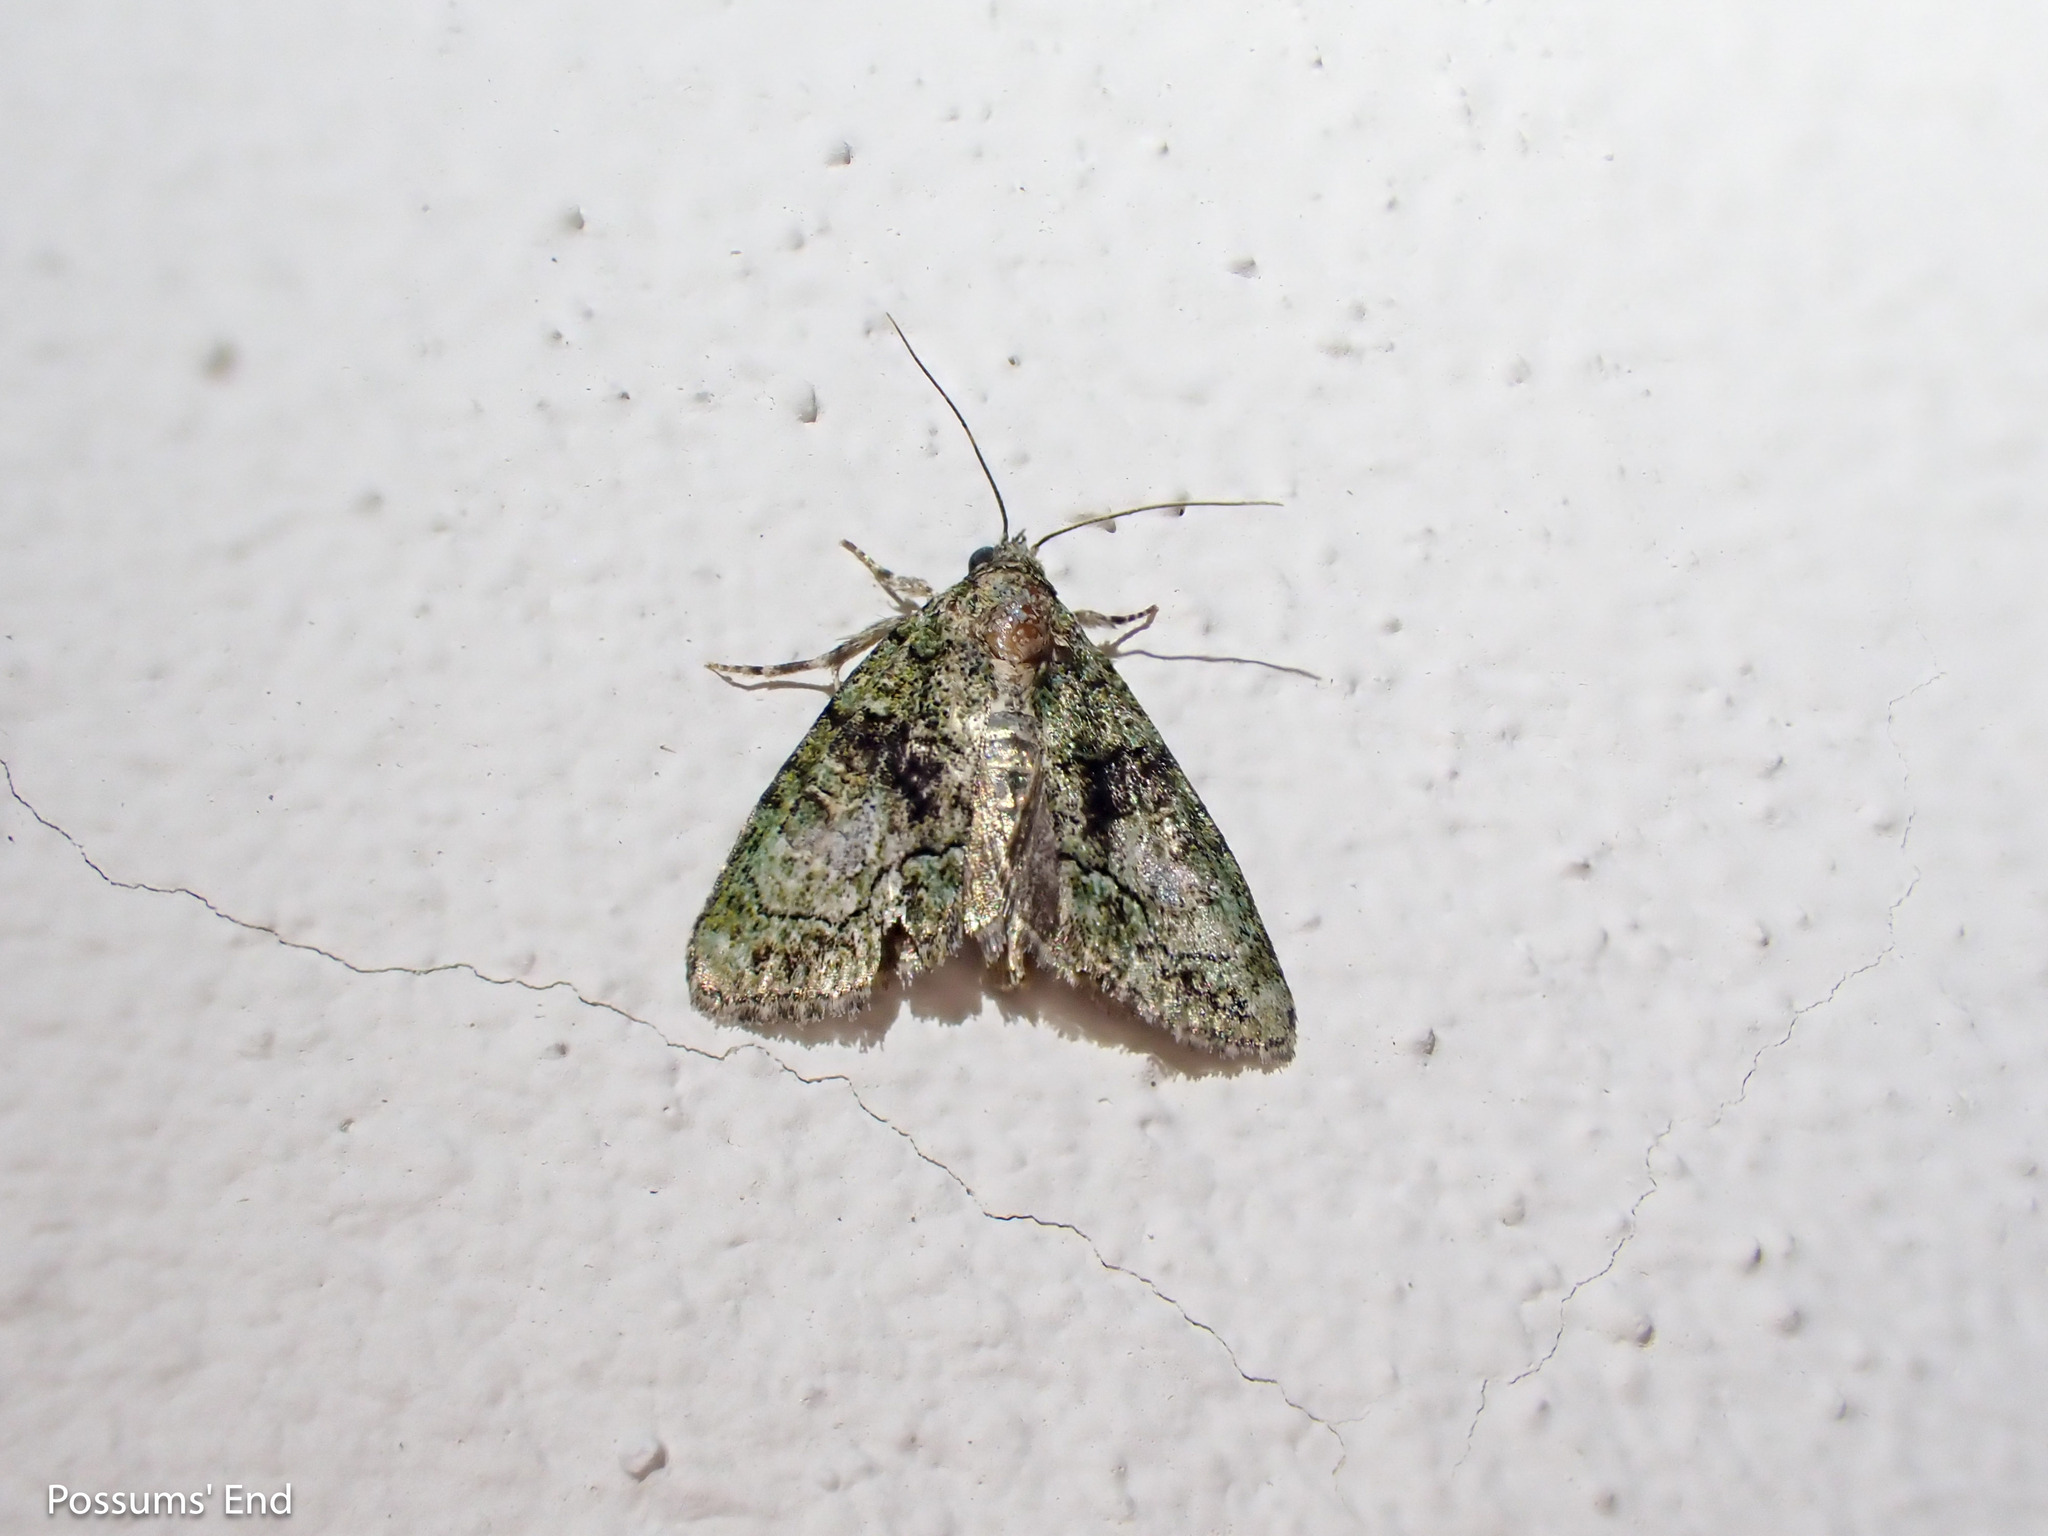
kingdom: Animalia
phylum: Arthropoda
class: Insecta
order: Lepidoptera
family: Noctuidae
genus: Cryphia
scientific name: Cryphia algae
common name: Tree-lichen beauty
